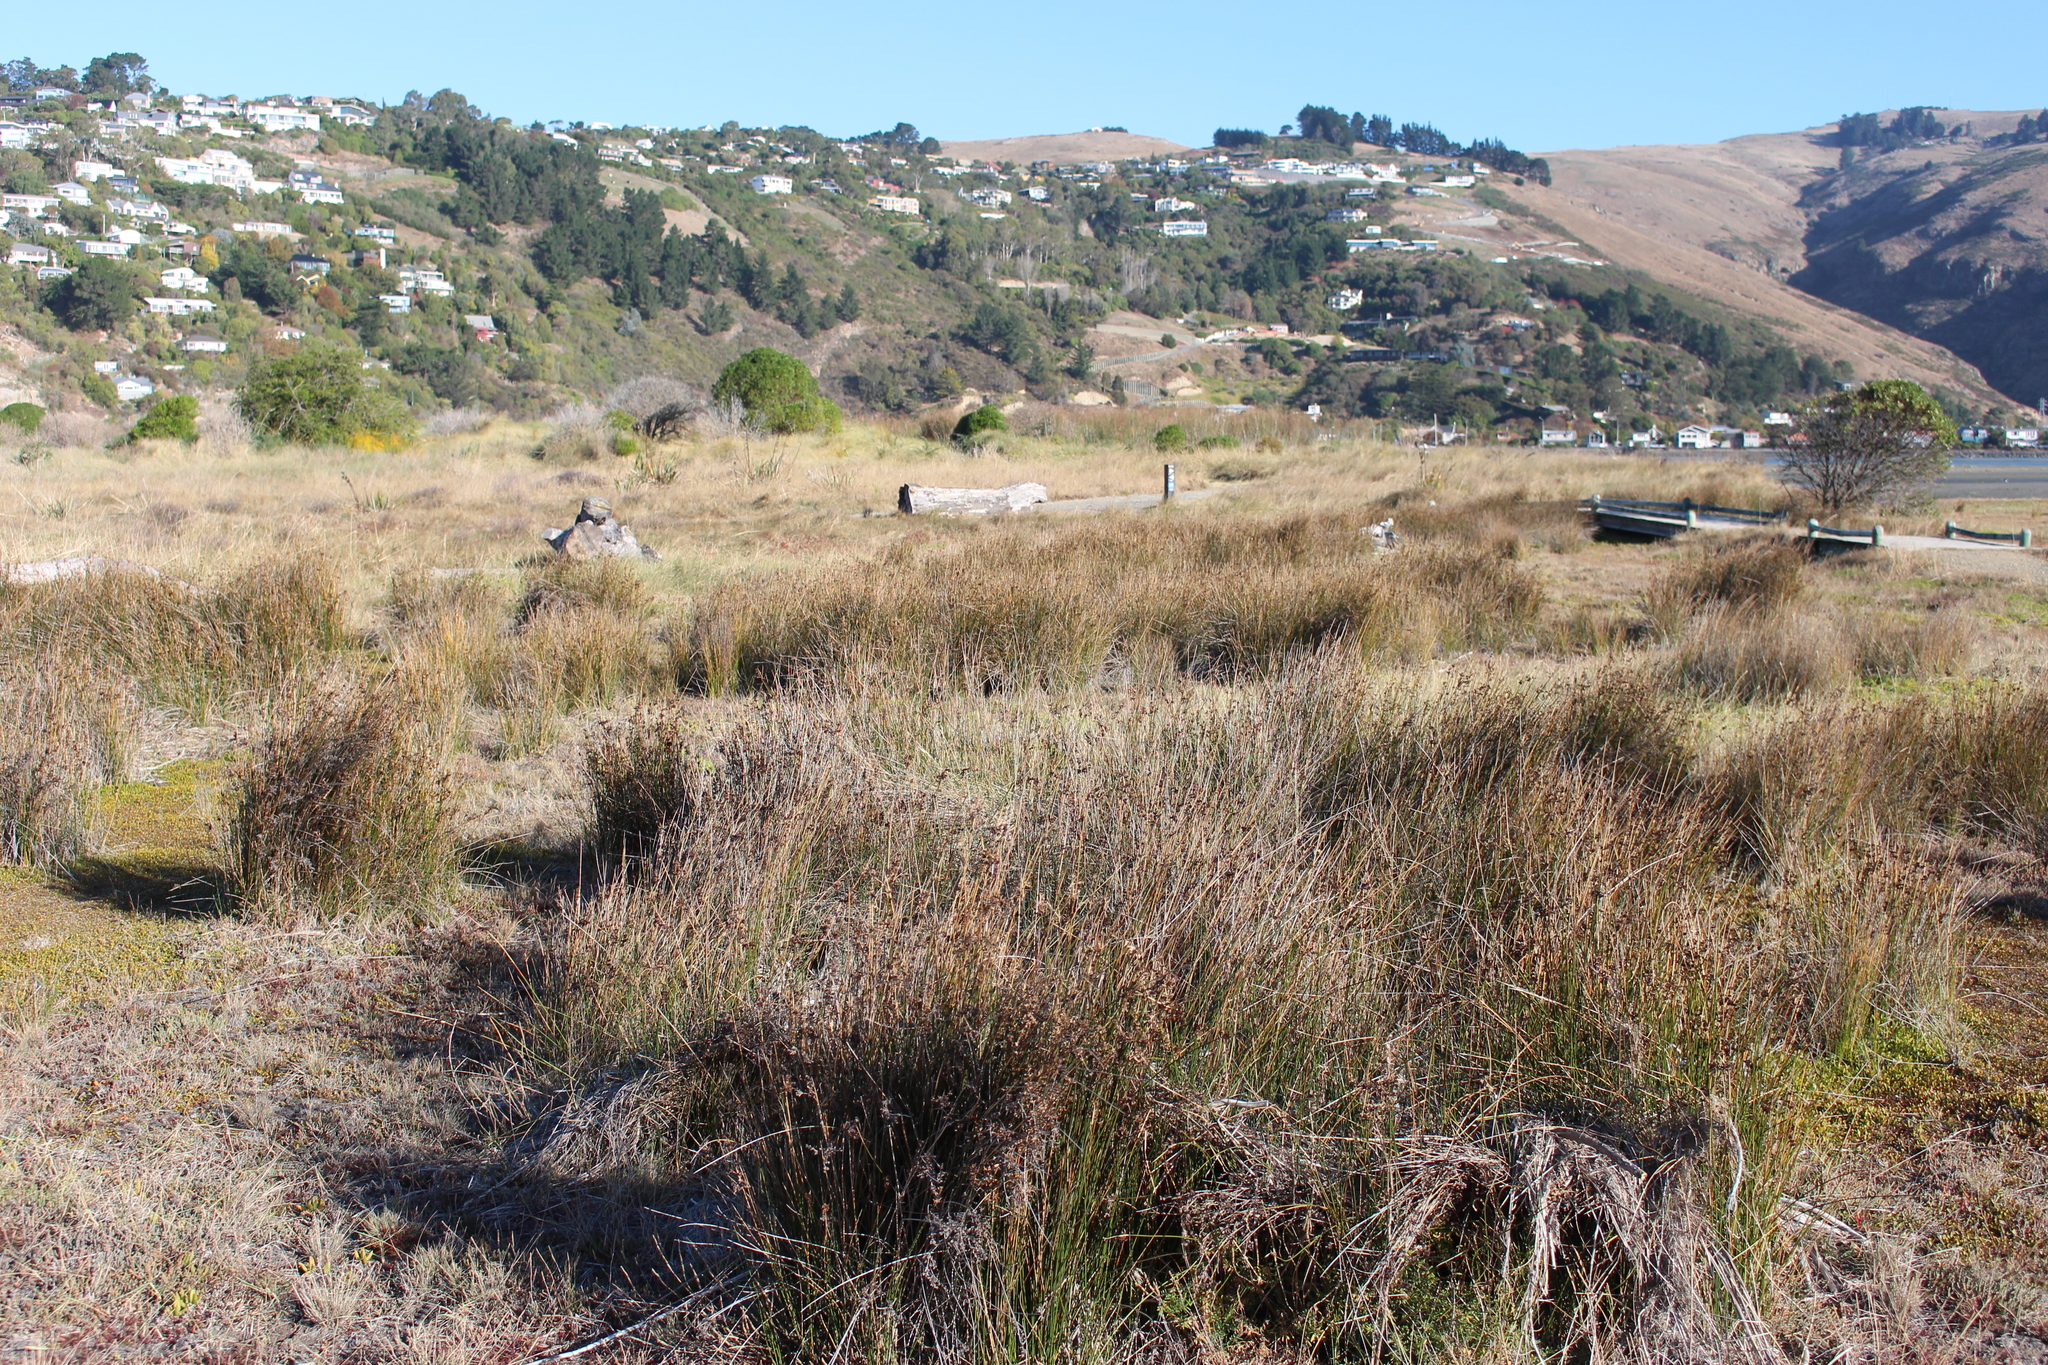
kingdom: Plantae
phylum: Tracheophyta
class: Liliopsida
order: Poales
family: Juncaceae
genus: Juncus
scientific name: Juncus kraussii
